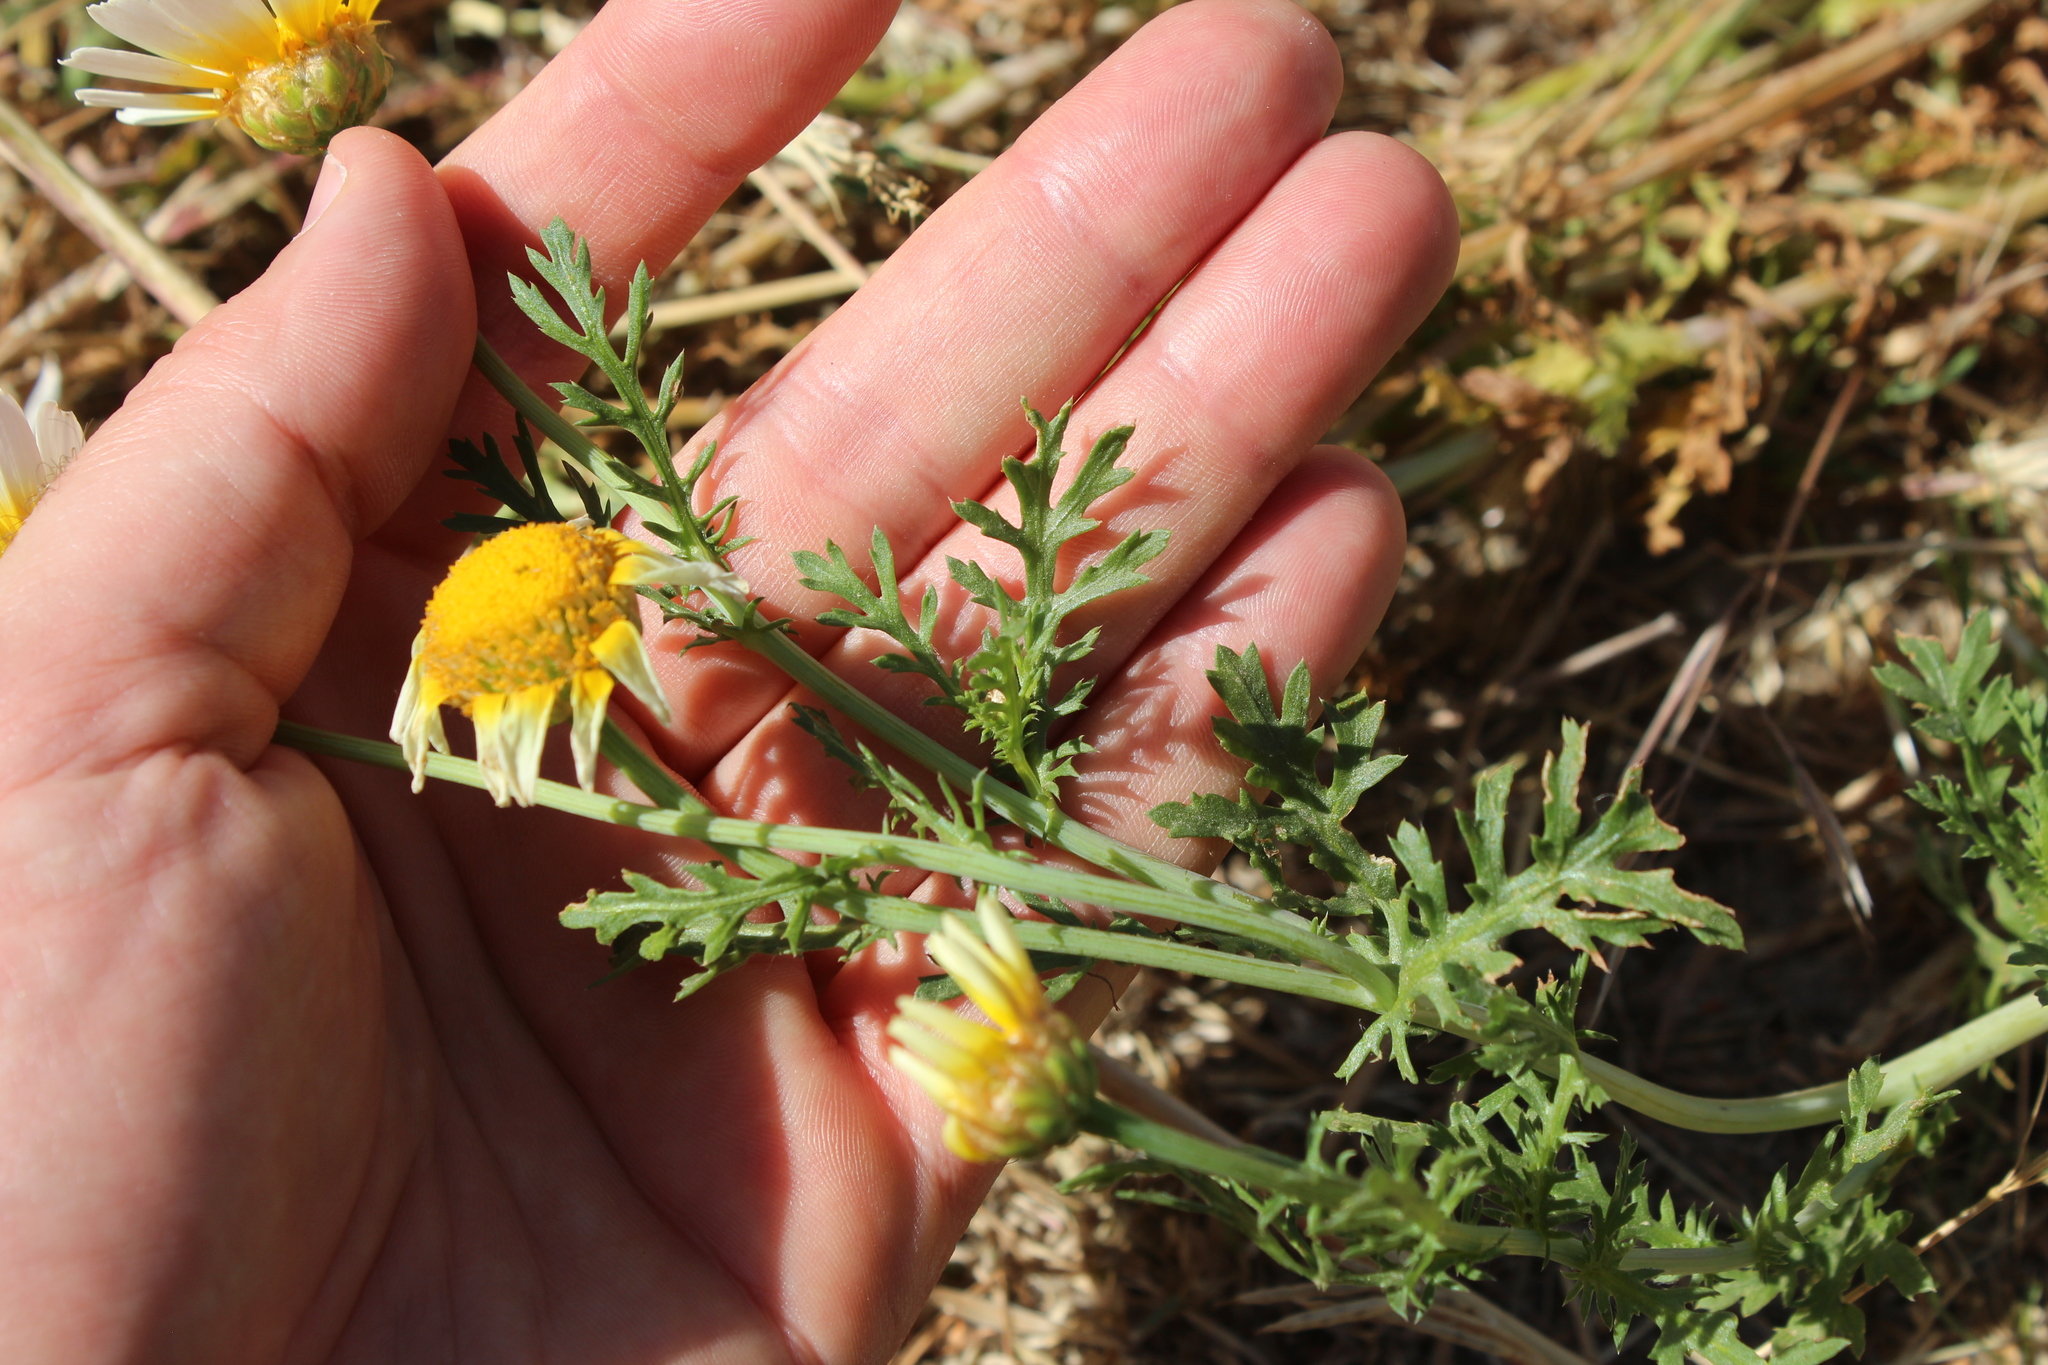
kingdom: Plantae
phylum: Tracheophyta
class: Magnoliopsida
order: Asterales
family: Asteraceae
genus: Glebionis
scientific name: Glebionis coronaria
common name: Crowndaisy
